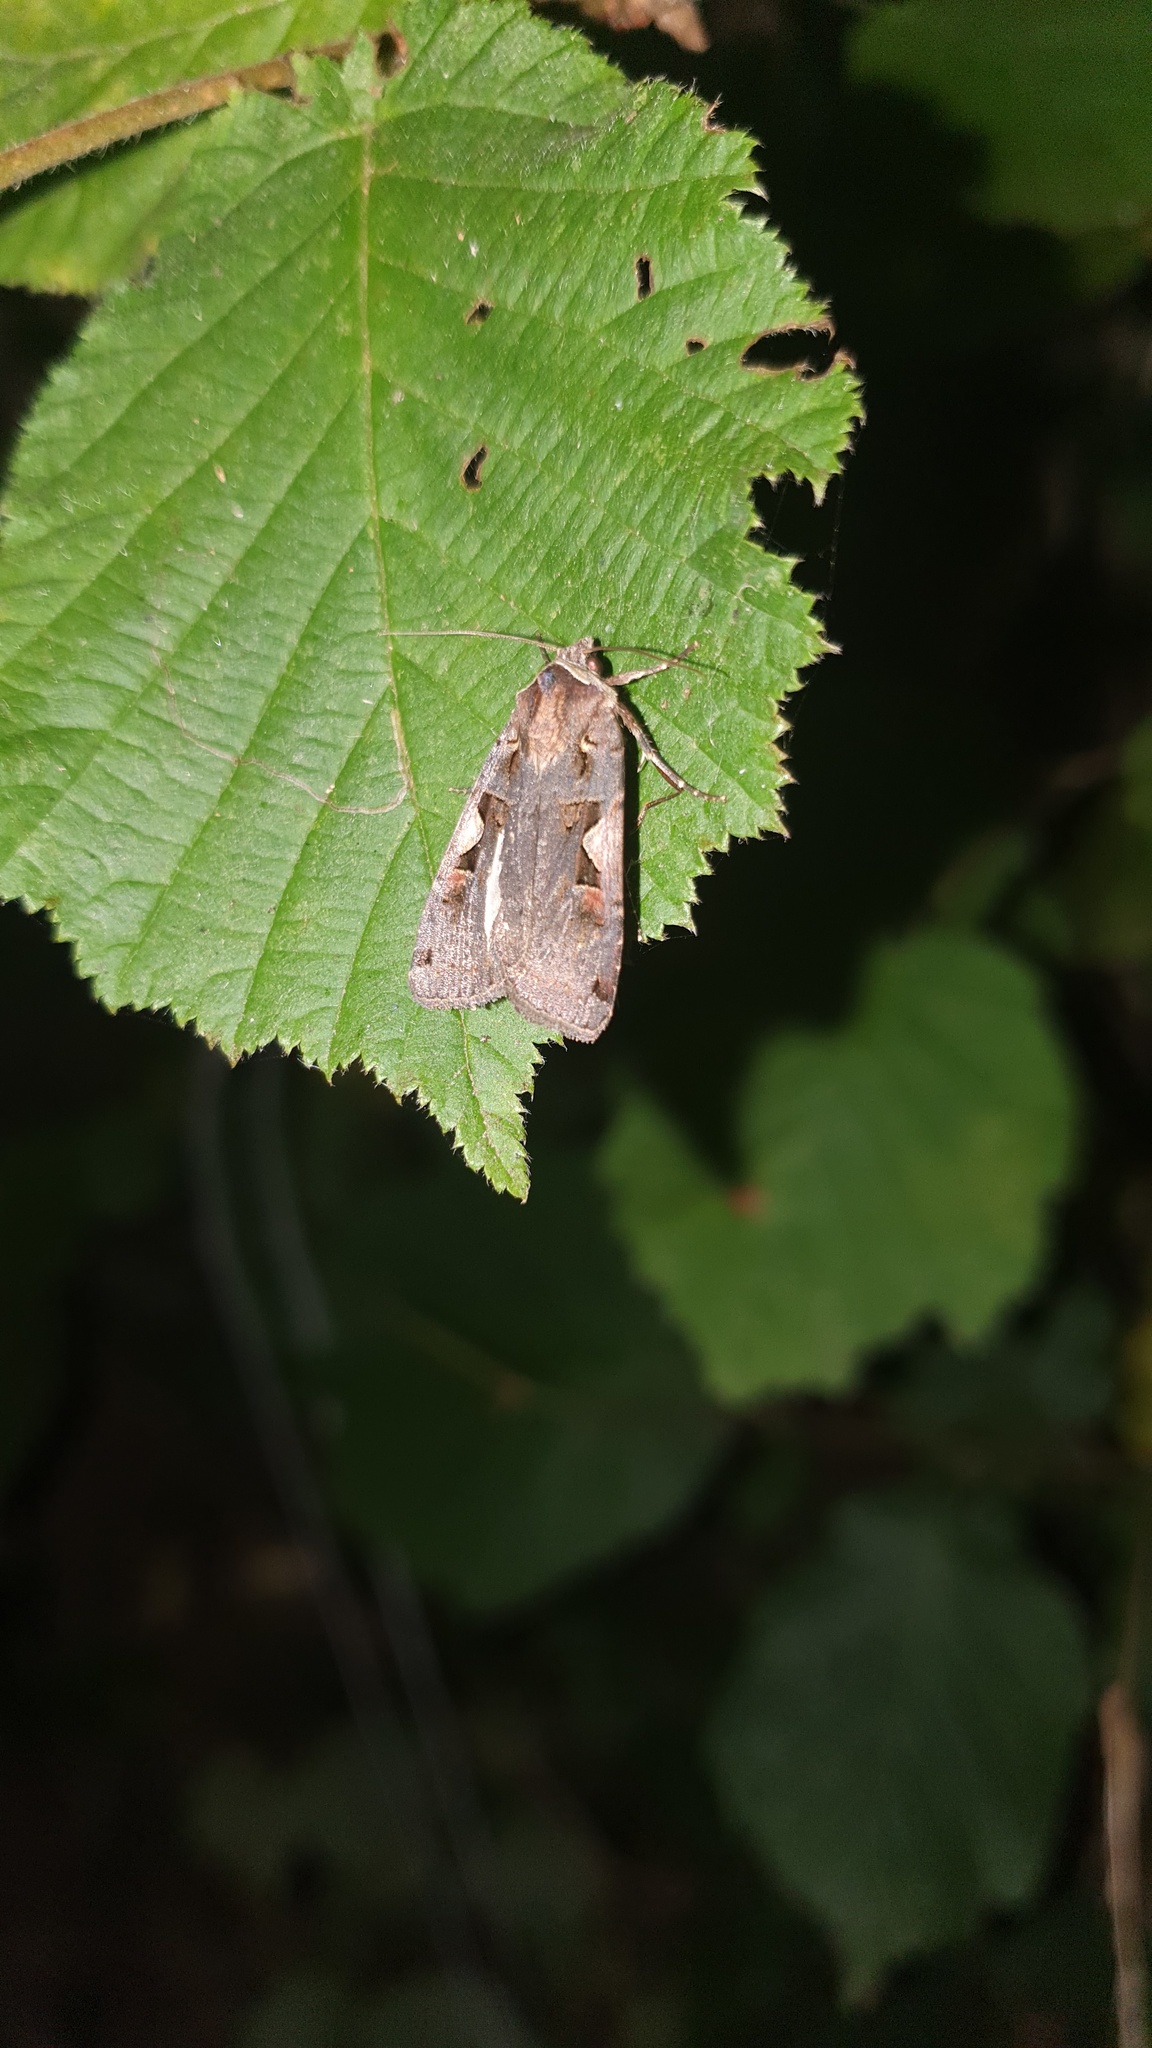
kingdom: Animalia
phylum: Arthropoda
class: Insecta
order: Lepidoptera
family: Noctuidae
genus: Xestia
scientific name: Xestia c-nigrum
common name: Setaceous hebrew character
